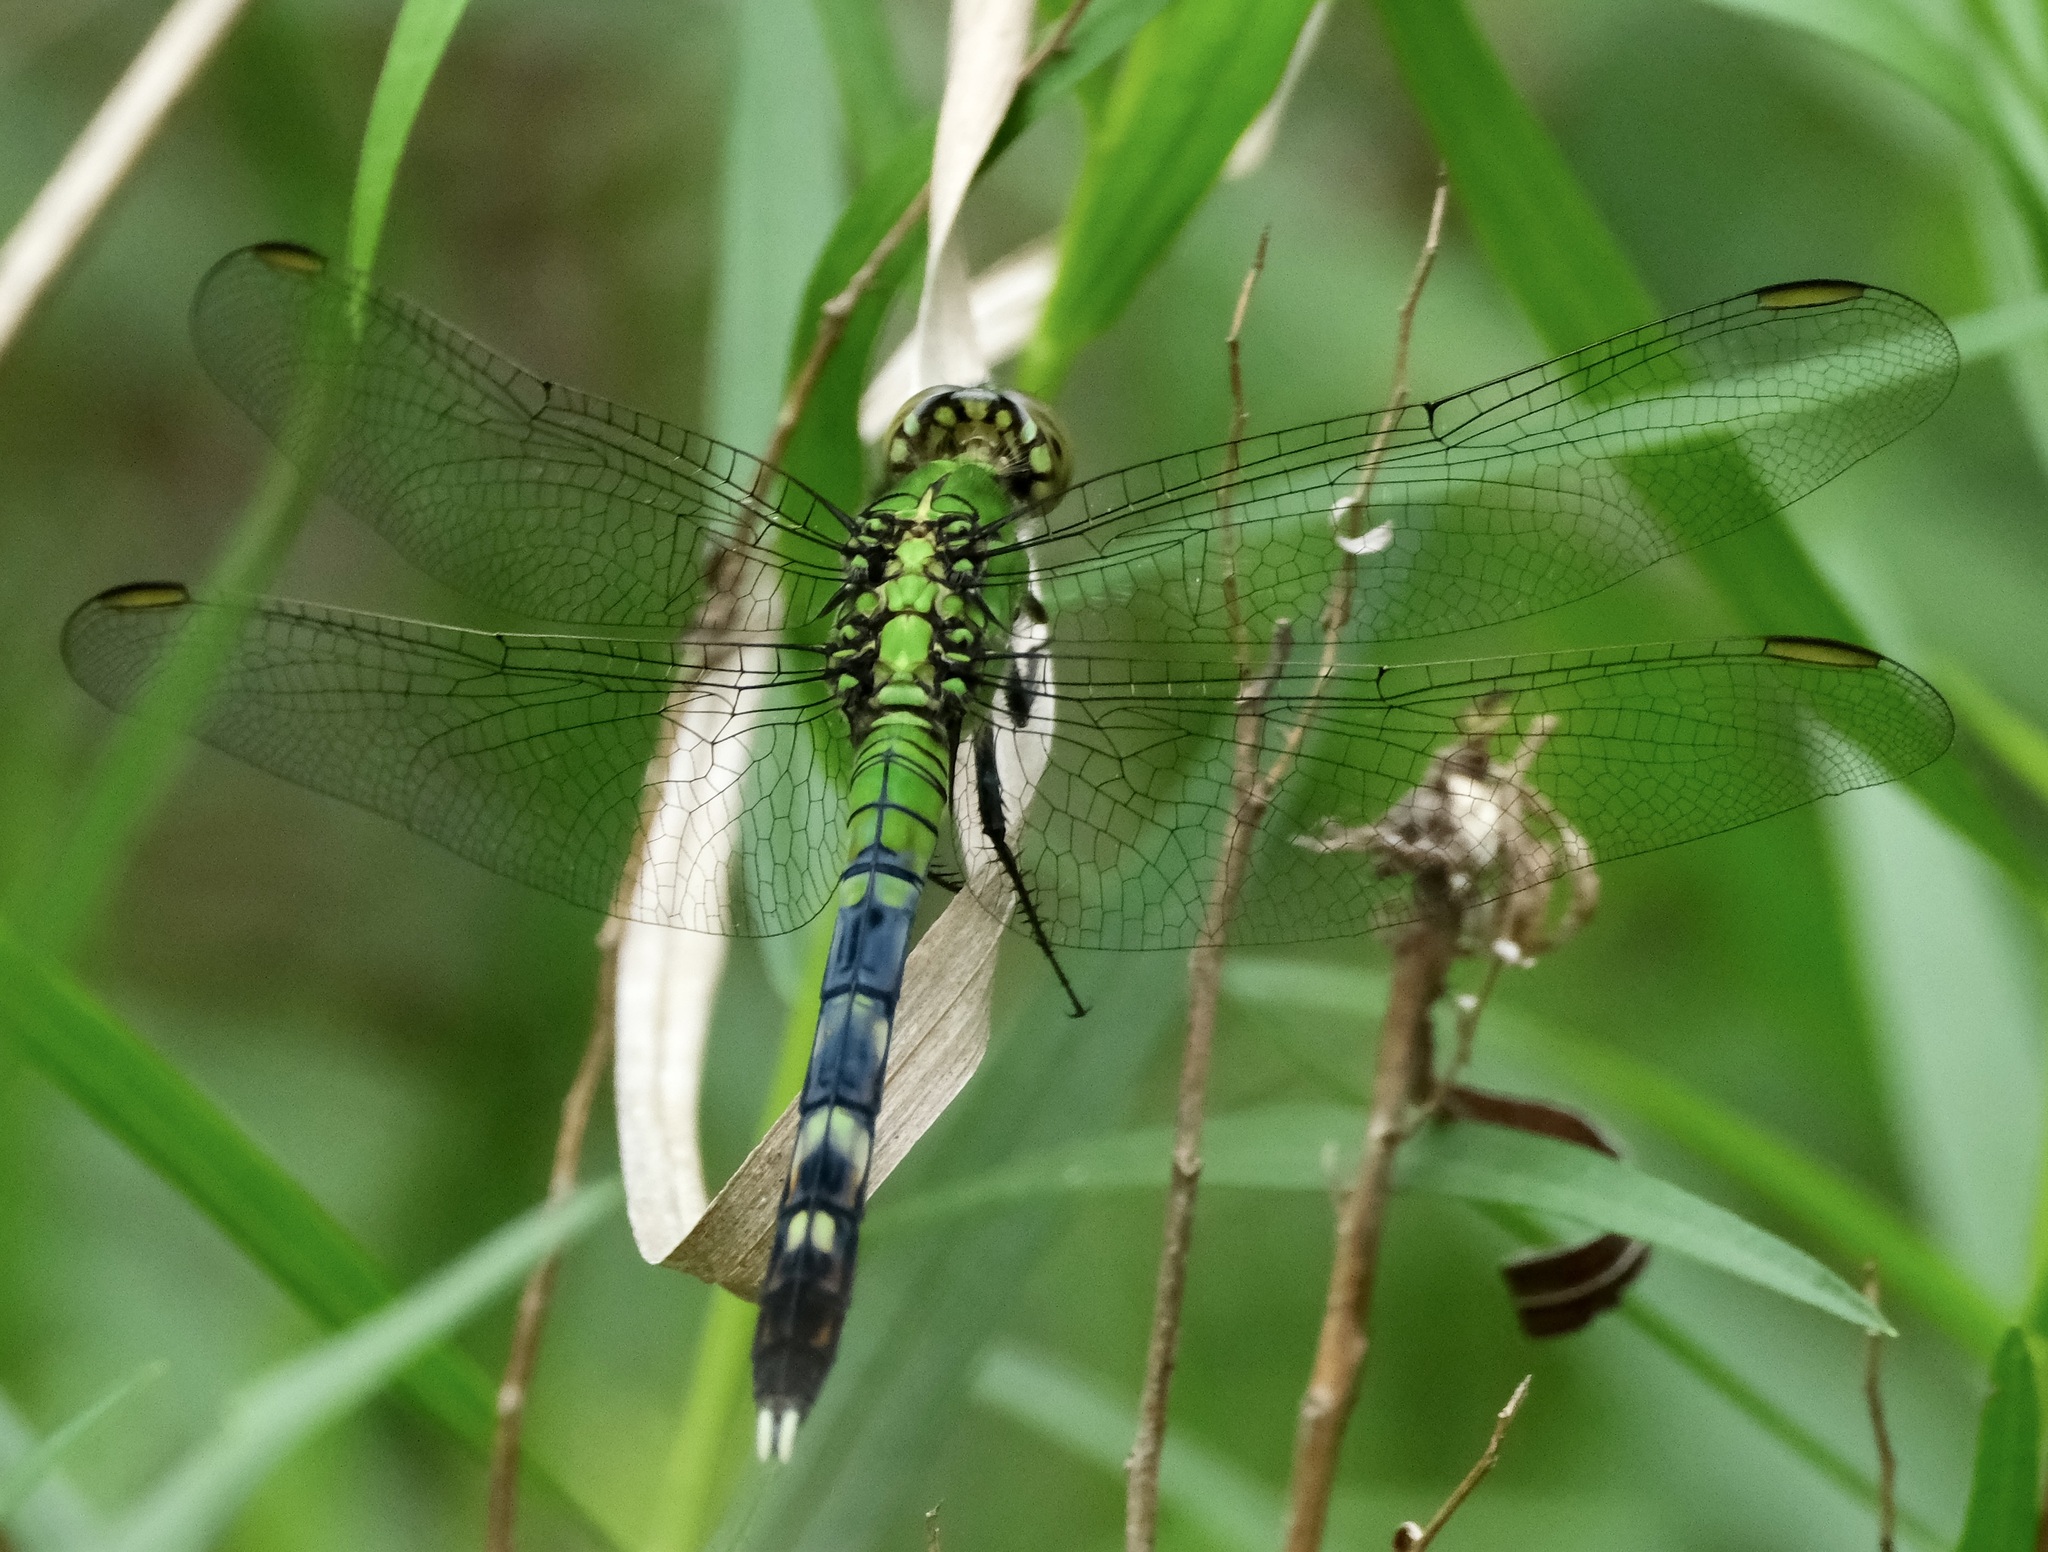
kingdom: Animalia
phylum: Arthropoda
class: Insecta
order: Odonata
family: Libellulidae
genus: Erythemis
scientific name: Erythemis simplicicollis
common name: Eastern pondhawk
